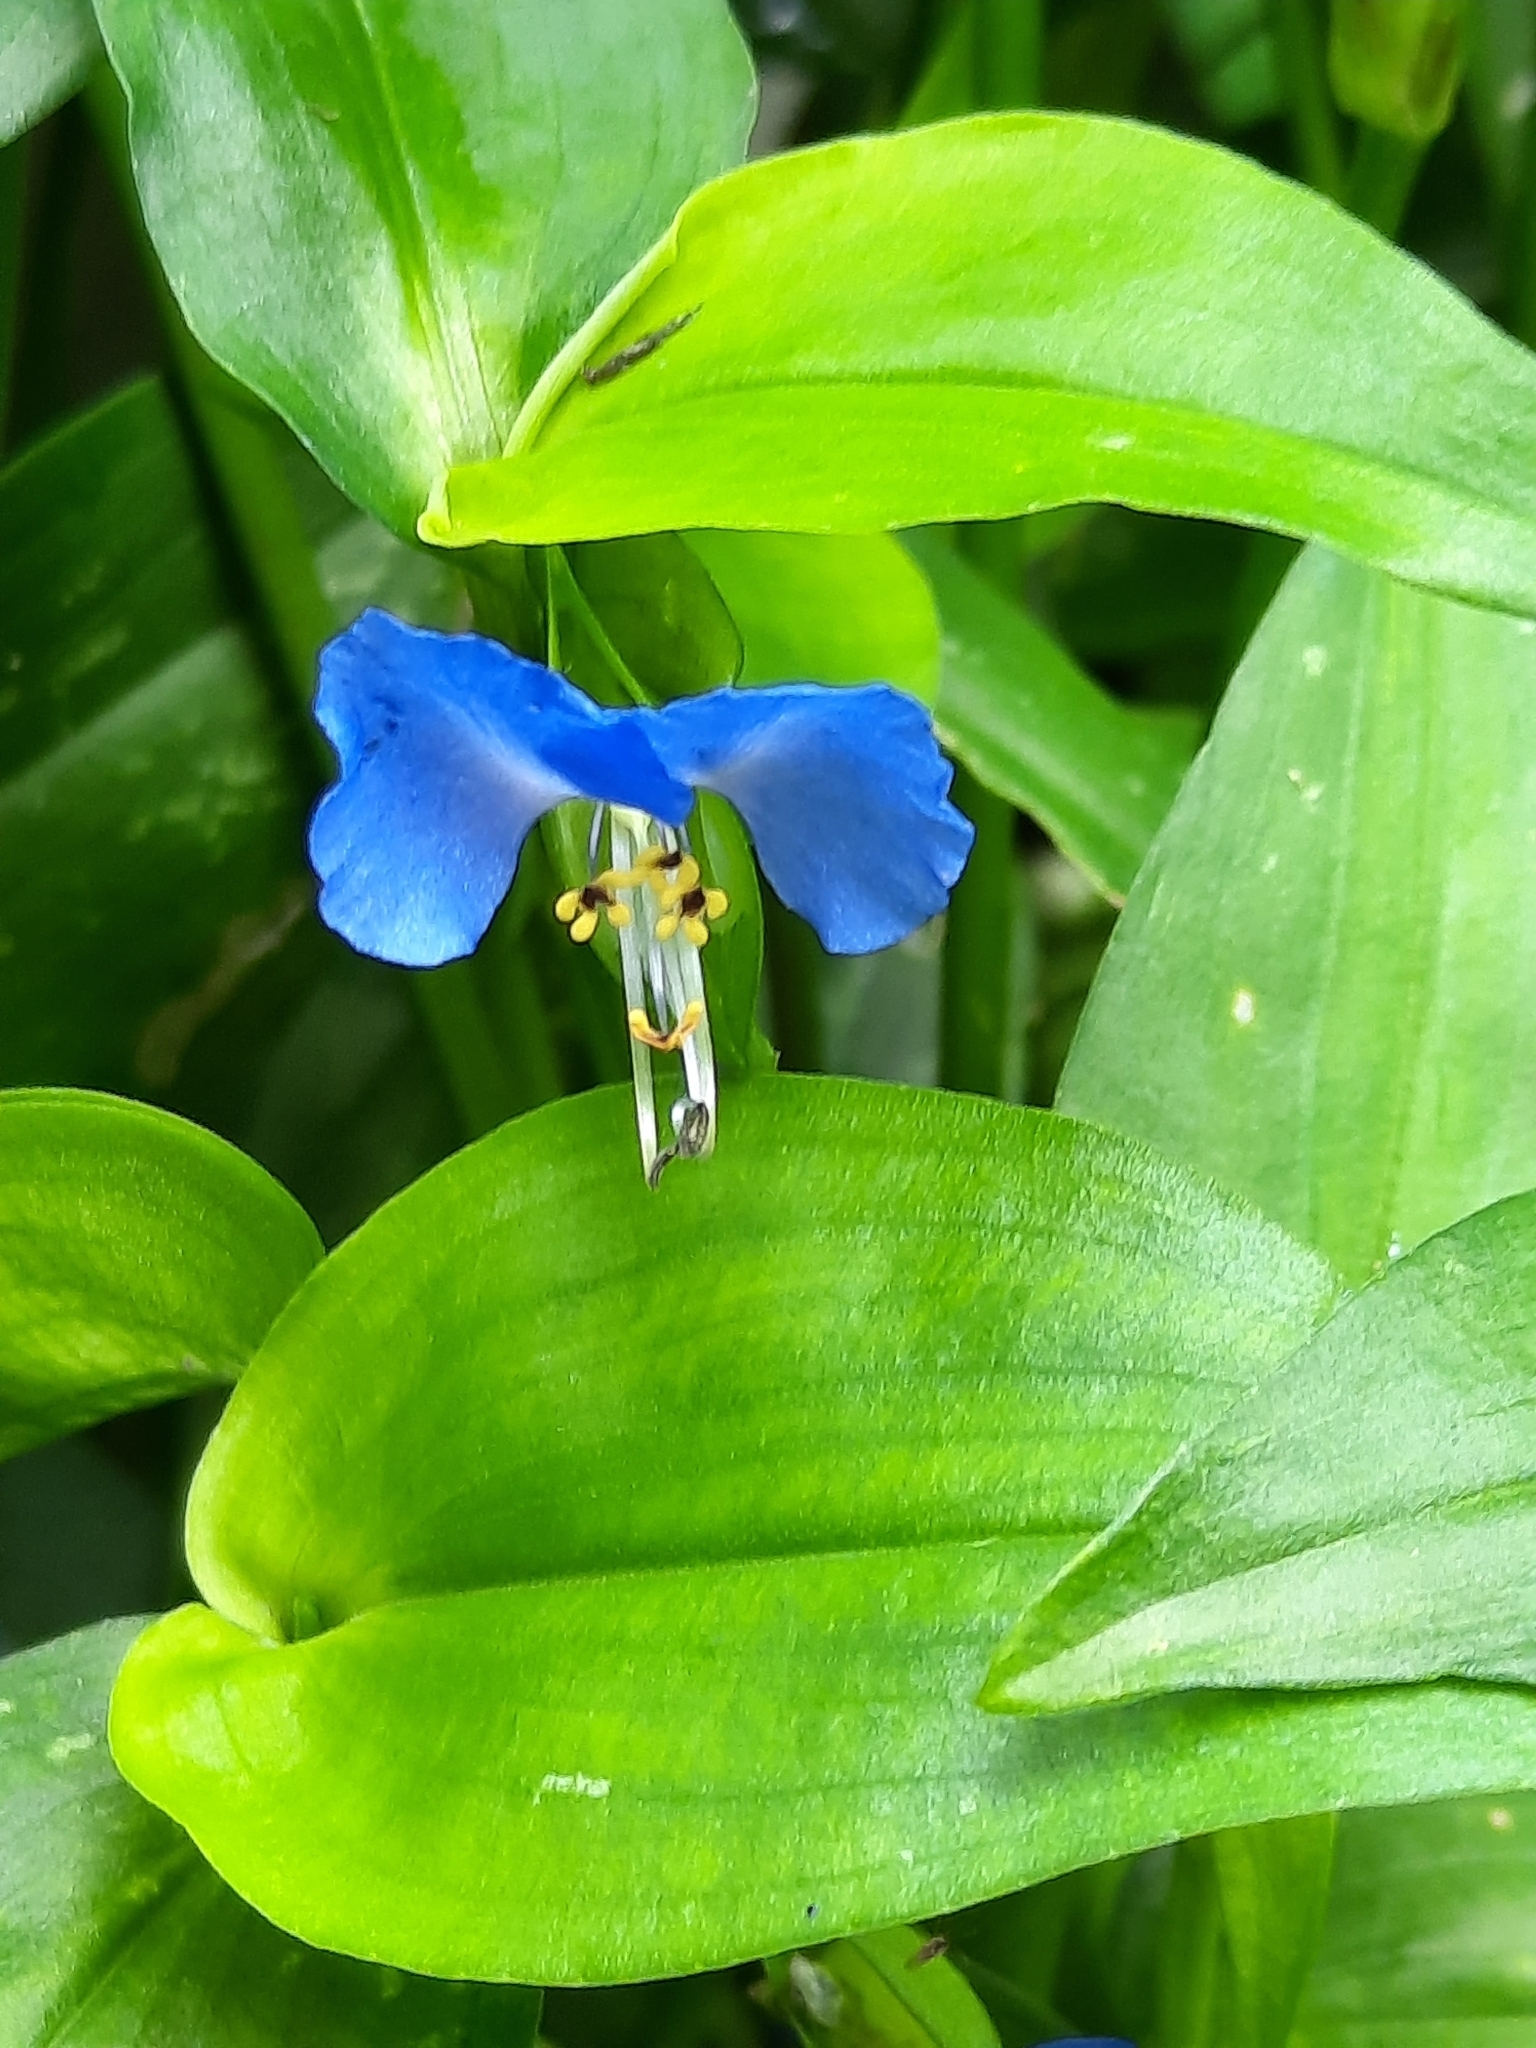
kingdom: Plantae
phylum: Tracheophyta
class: Liliopsida
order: Commelinales
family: Commelinaceae
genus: Commelina
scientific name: Commelina communis
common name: Asiatic dayflower
